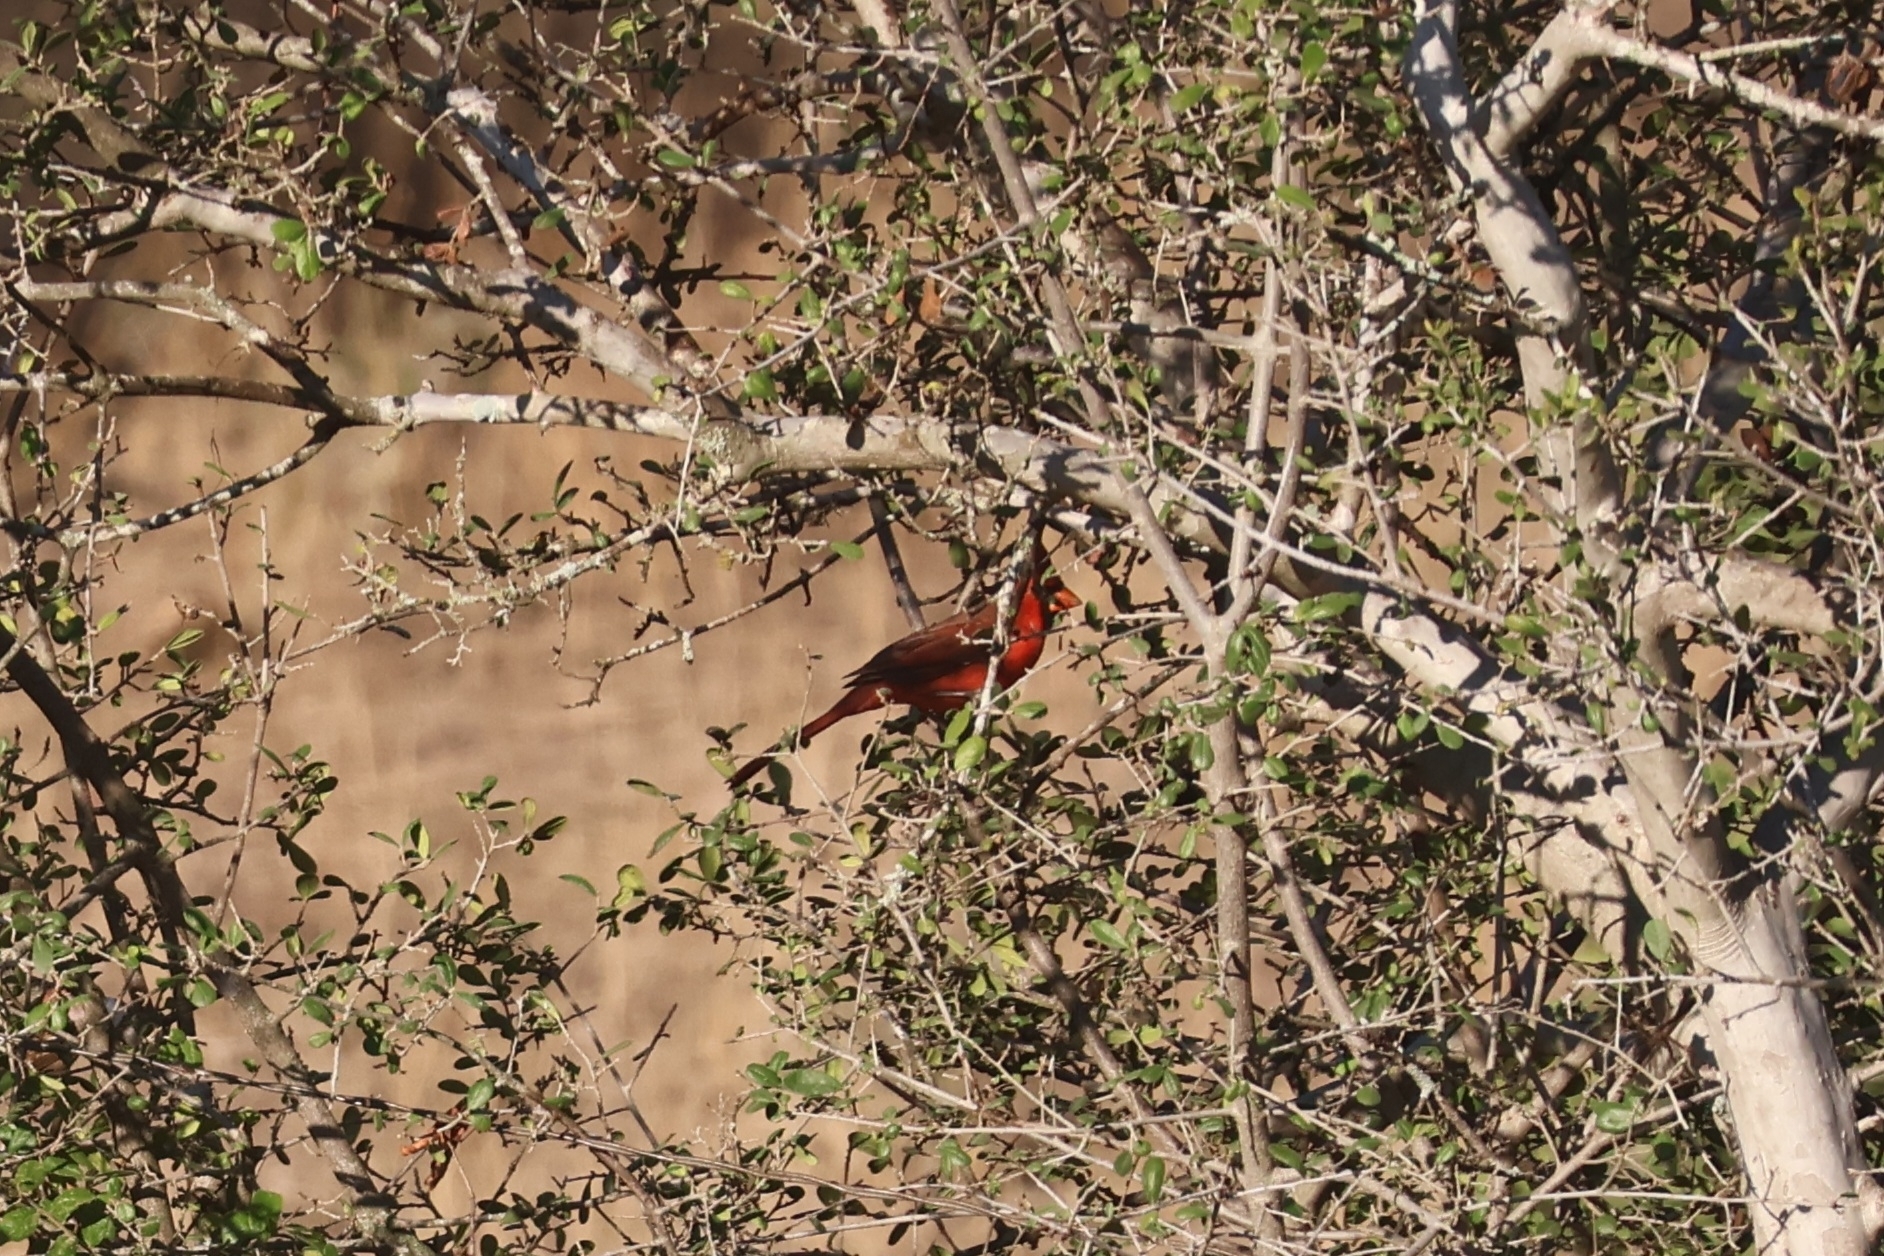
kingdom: Animalia
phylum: Chordata
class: Aves
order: Passeriformes
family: Cardinalidae
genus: Cardinalis
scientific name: Cardinalis cardinalis
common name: Northern cardinal
